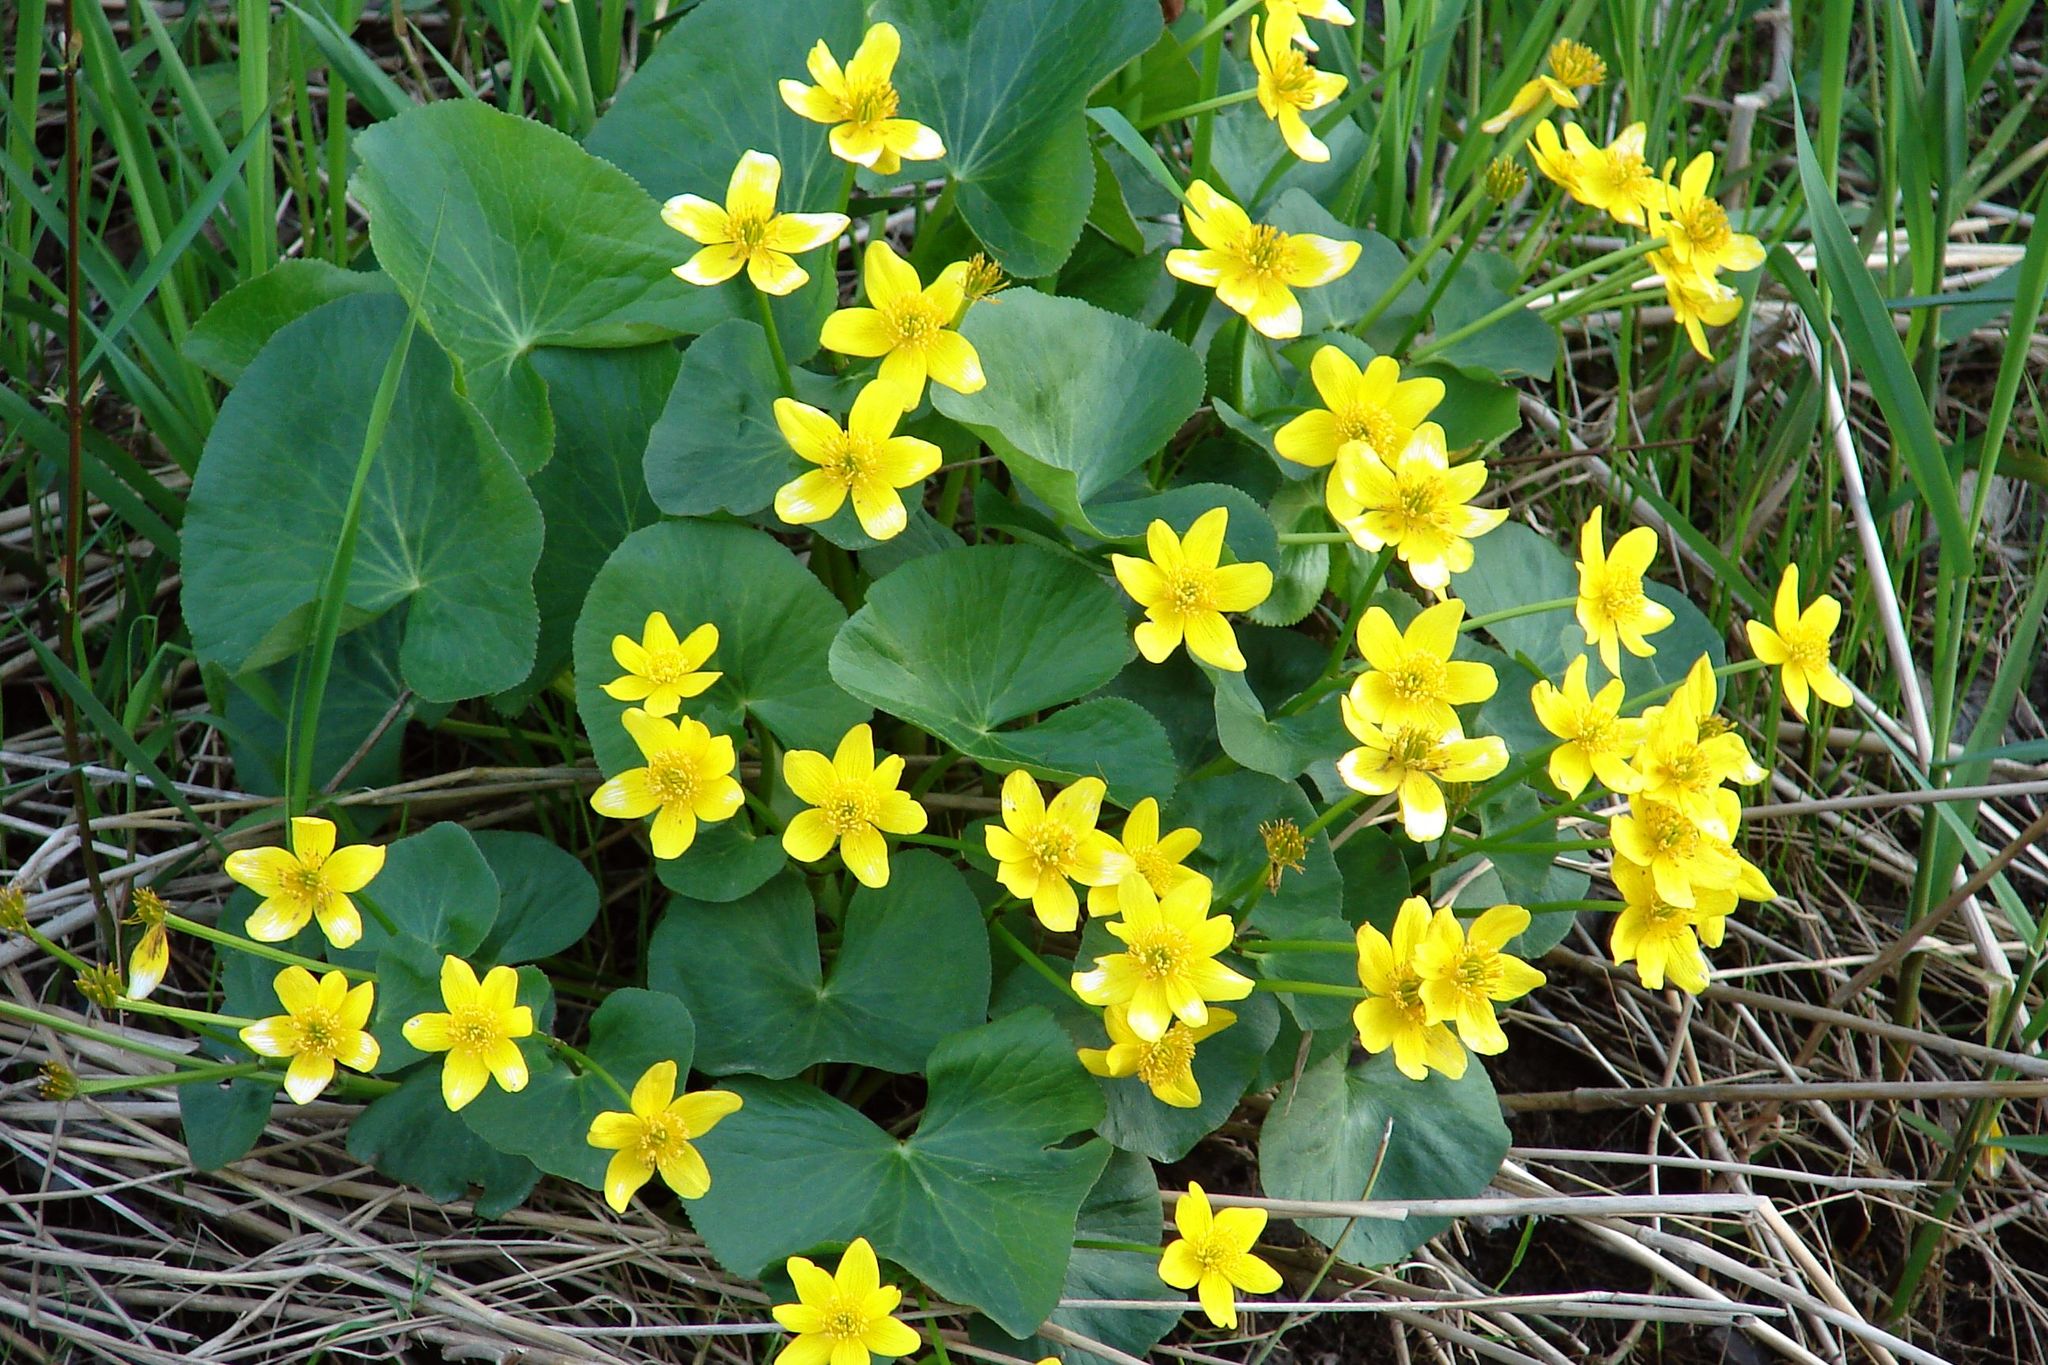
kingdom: Plantae
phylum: Tracheophyta
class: Magnoliopsida
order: Ranunculales
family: Ranunculaceae
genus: Caltha
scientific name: Caltha palustris
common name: Marsh marigold
